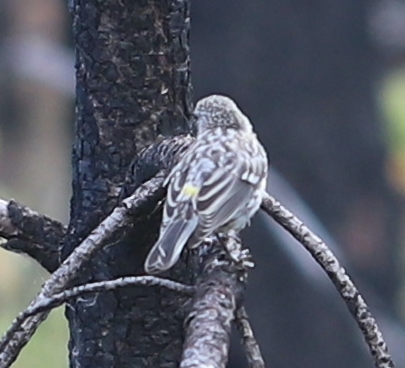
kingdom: Animalia
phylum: Chordata
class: Aves
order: Passeriformes
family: Parulidae
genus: Setophaga
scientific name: Setophaga coronata
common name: Myrtle warbler
